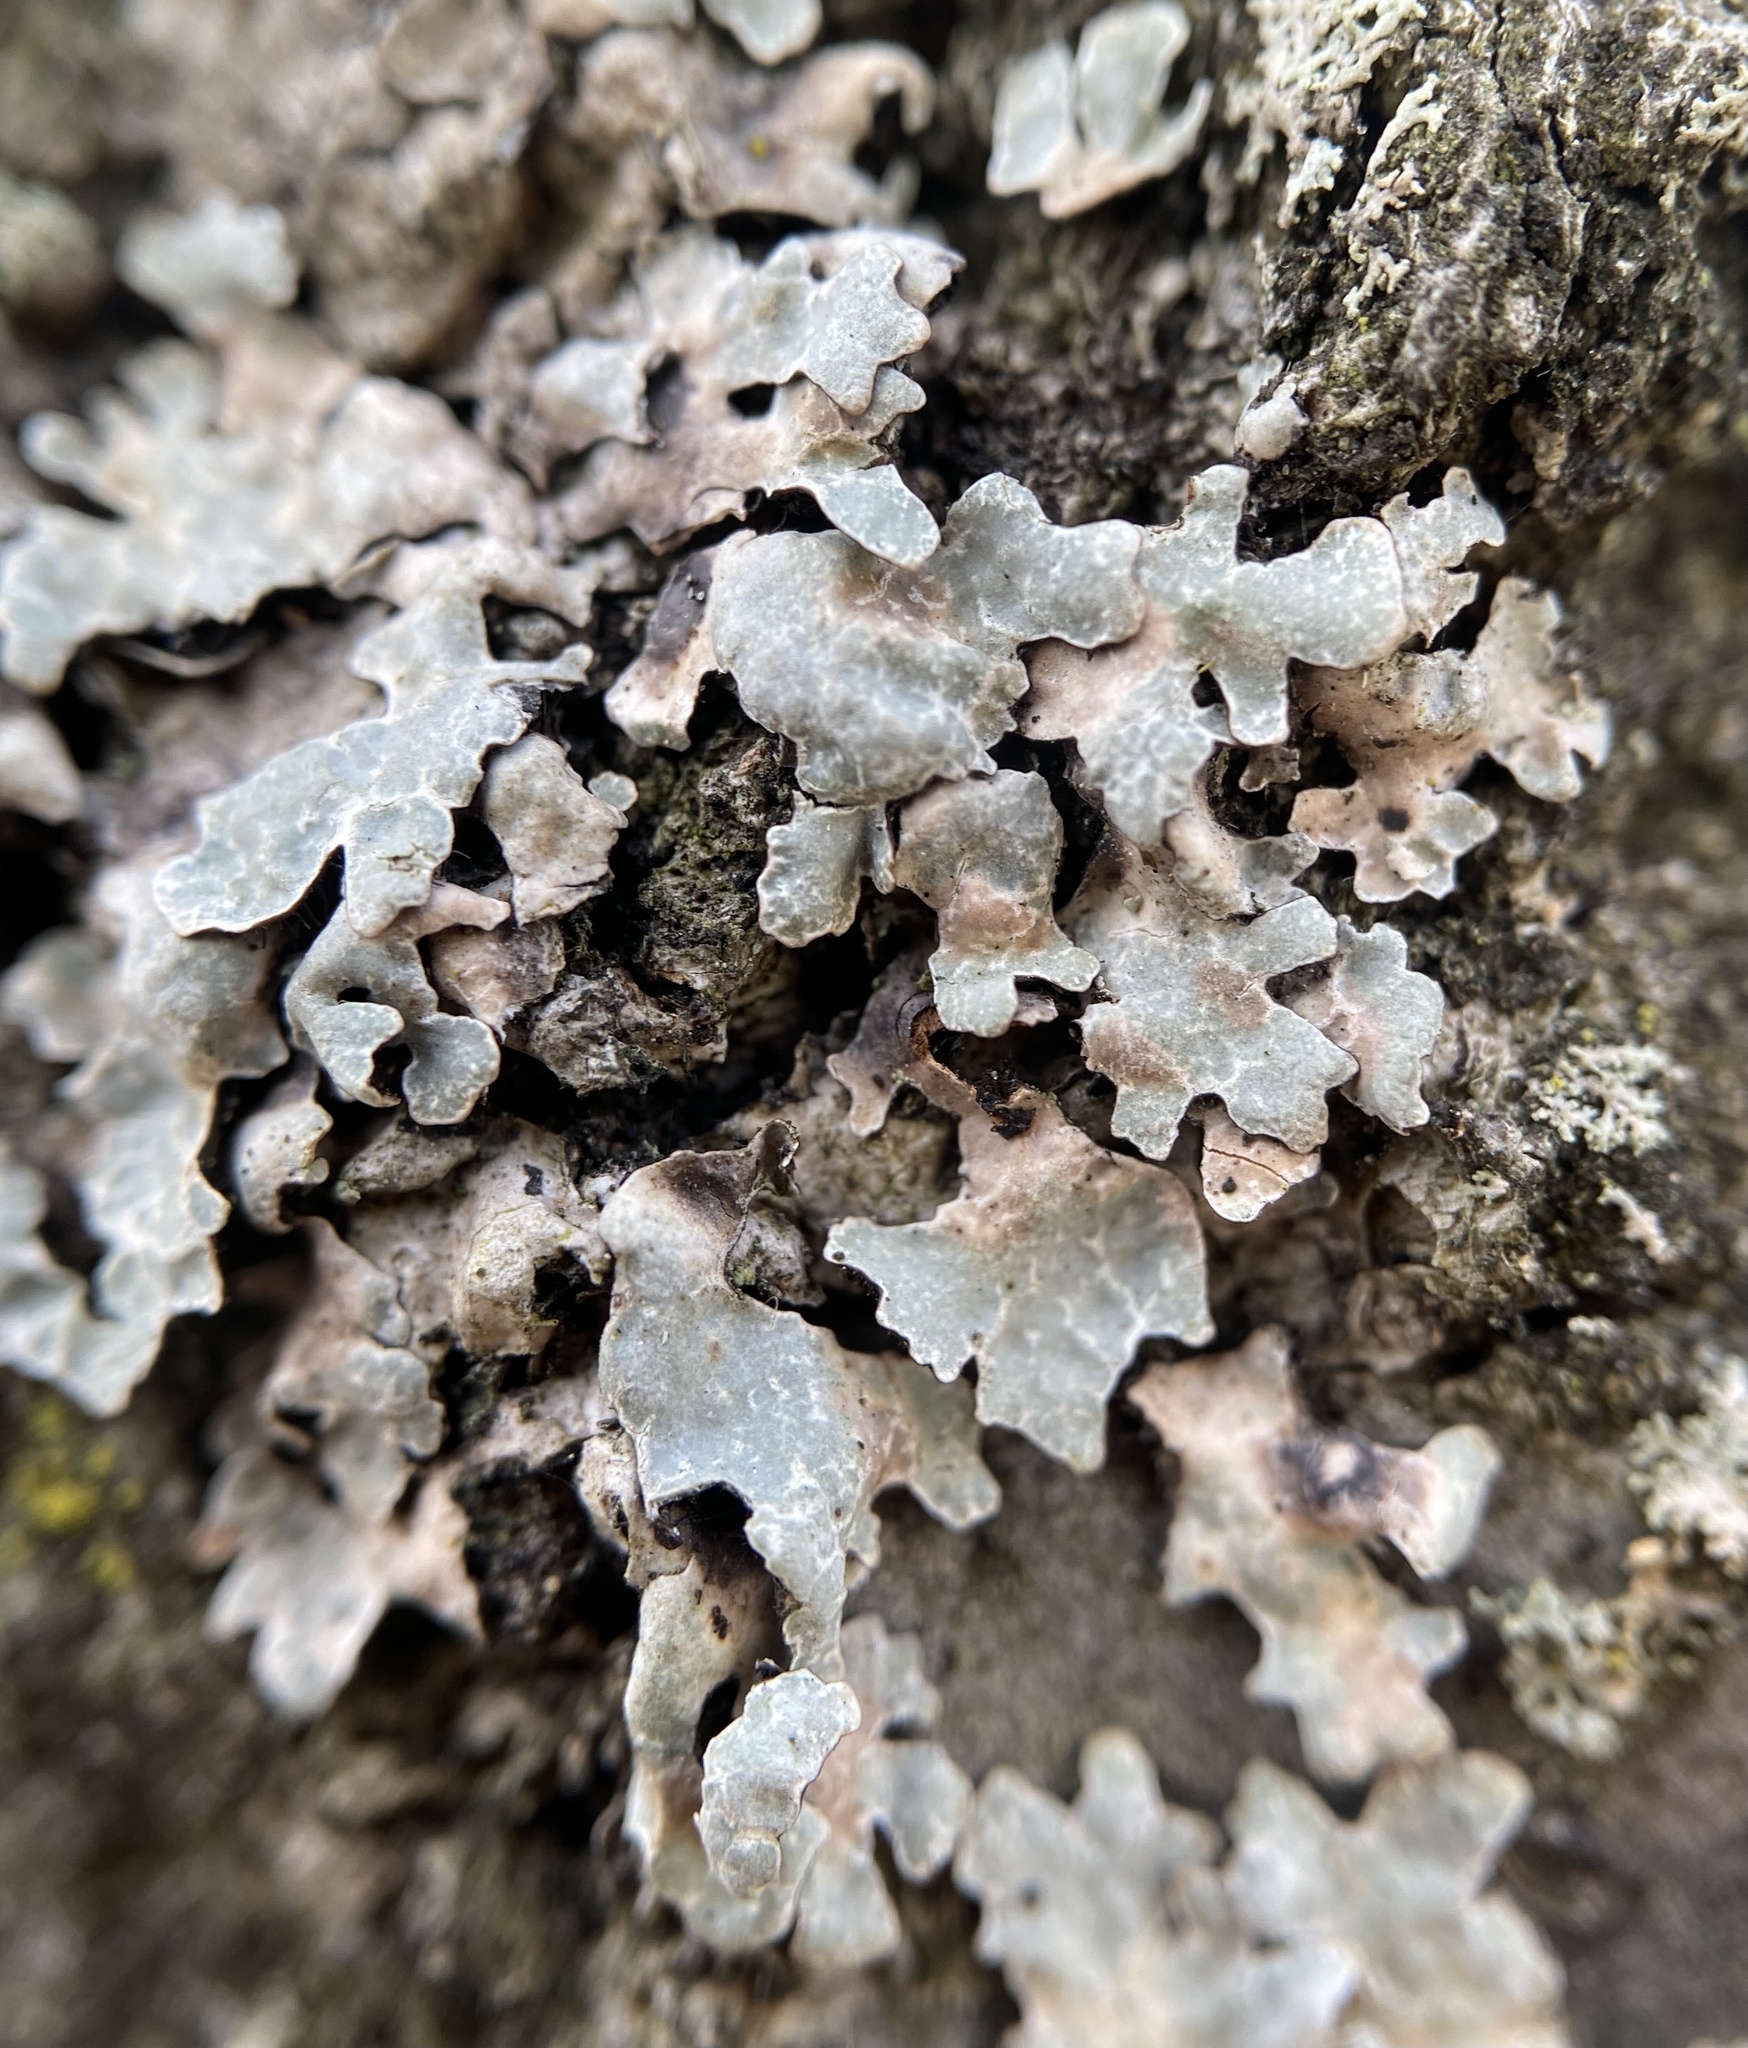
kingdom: Fungi
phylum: Ascomycota
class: Lecanoromycetes
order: Lecanorales
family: Parmeliaceae
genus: Parmelia
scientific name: Parmelia sulcata
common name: Netted shield lichen
